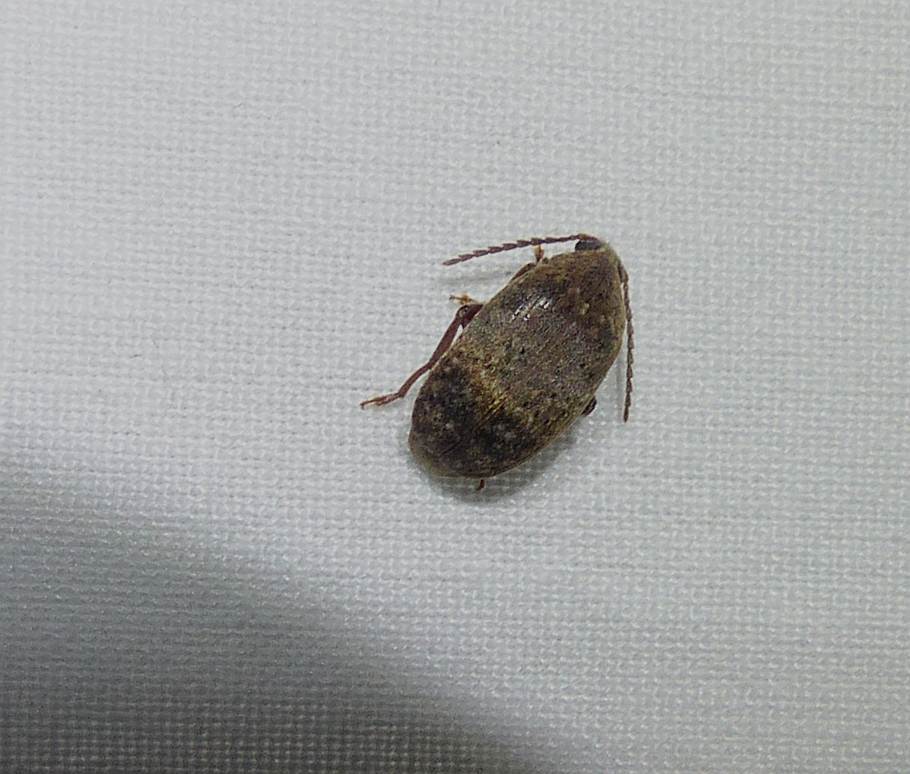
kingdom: Animalia
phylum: Arthropoda
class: Insecta
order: Coleoptera
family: Chrysomelidae
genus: Amblycerus
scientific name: Amblycerus robiniae
